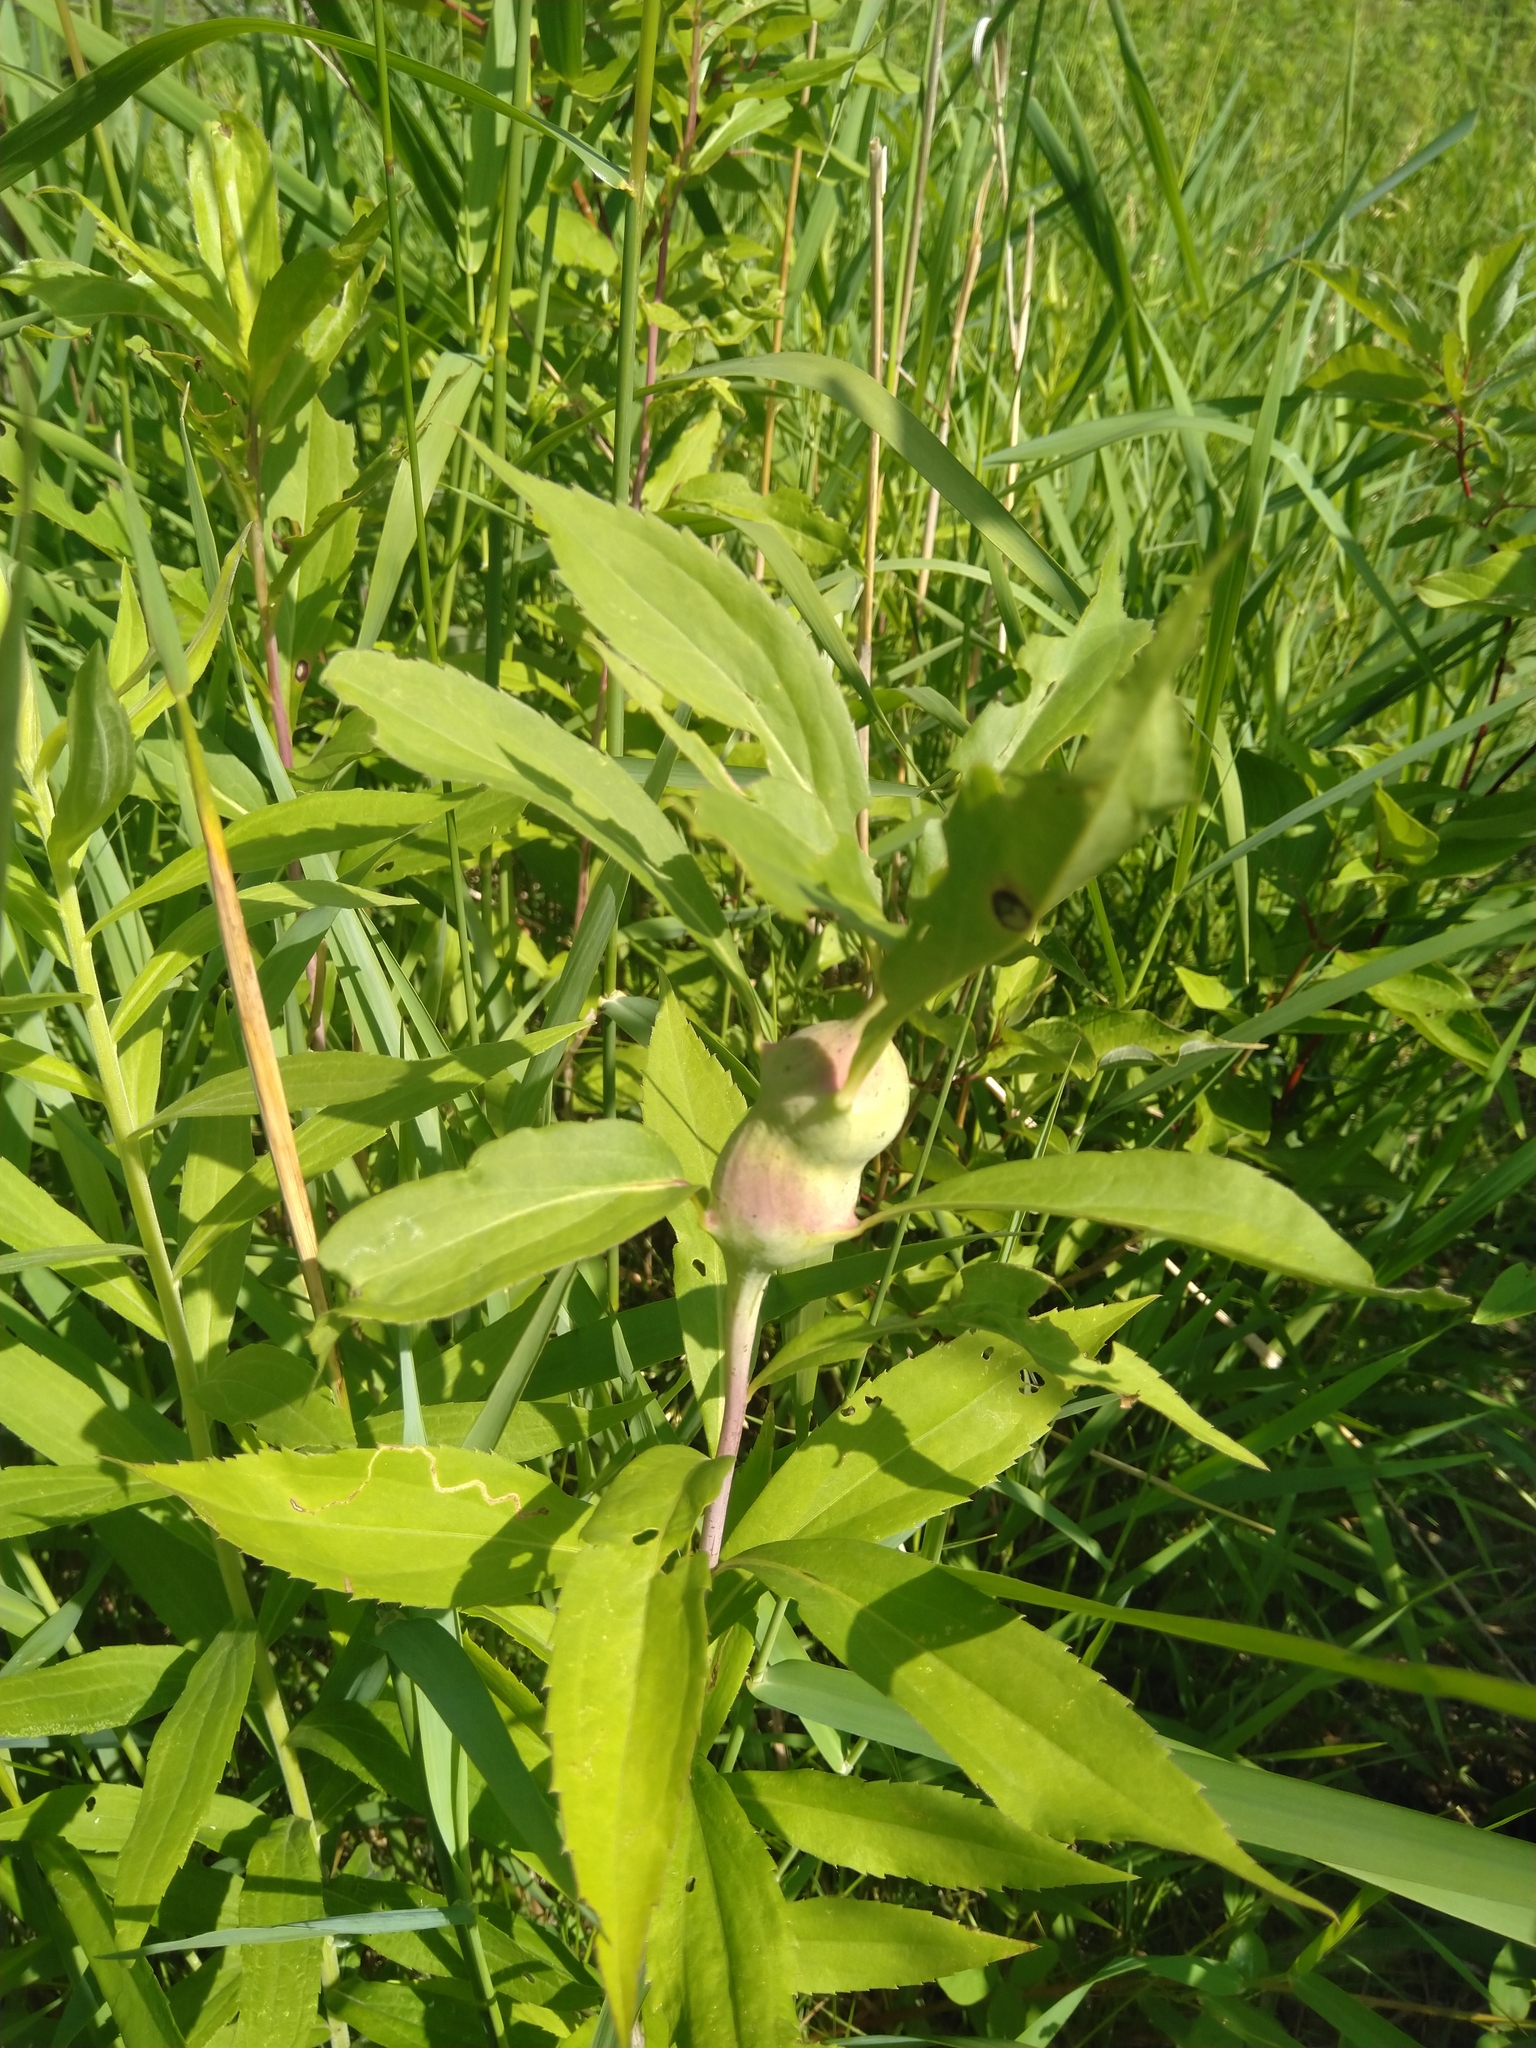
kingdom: Animalia
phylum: Arthropoda
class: Insecta
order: Diptera
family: Tephritidae
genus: Eurosta
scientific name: Eurosta solidaginis
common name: Goldenrod gall fly
